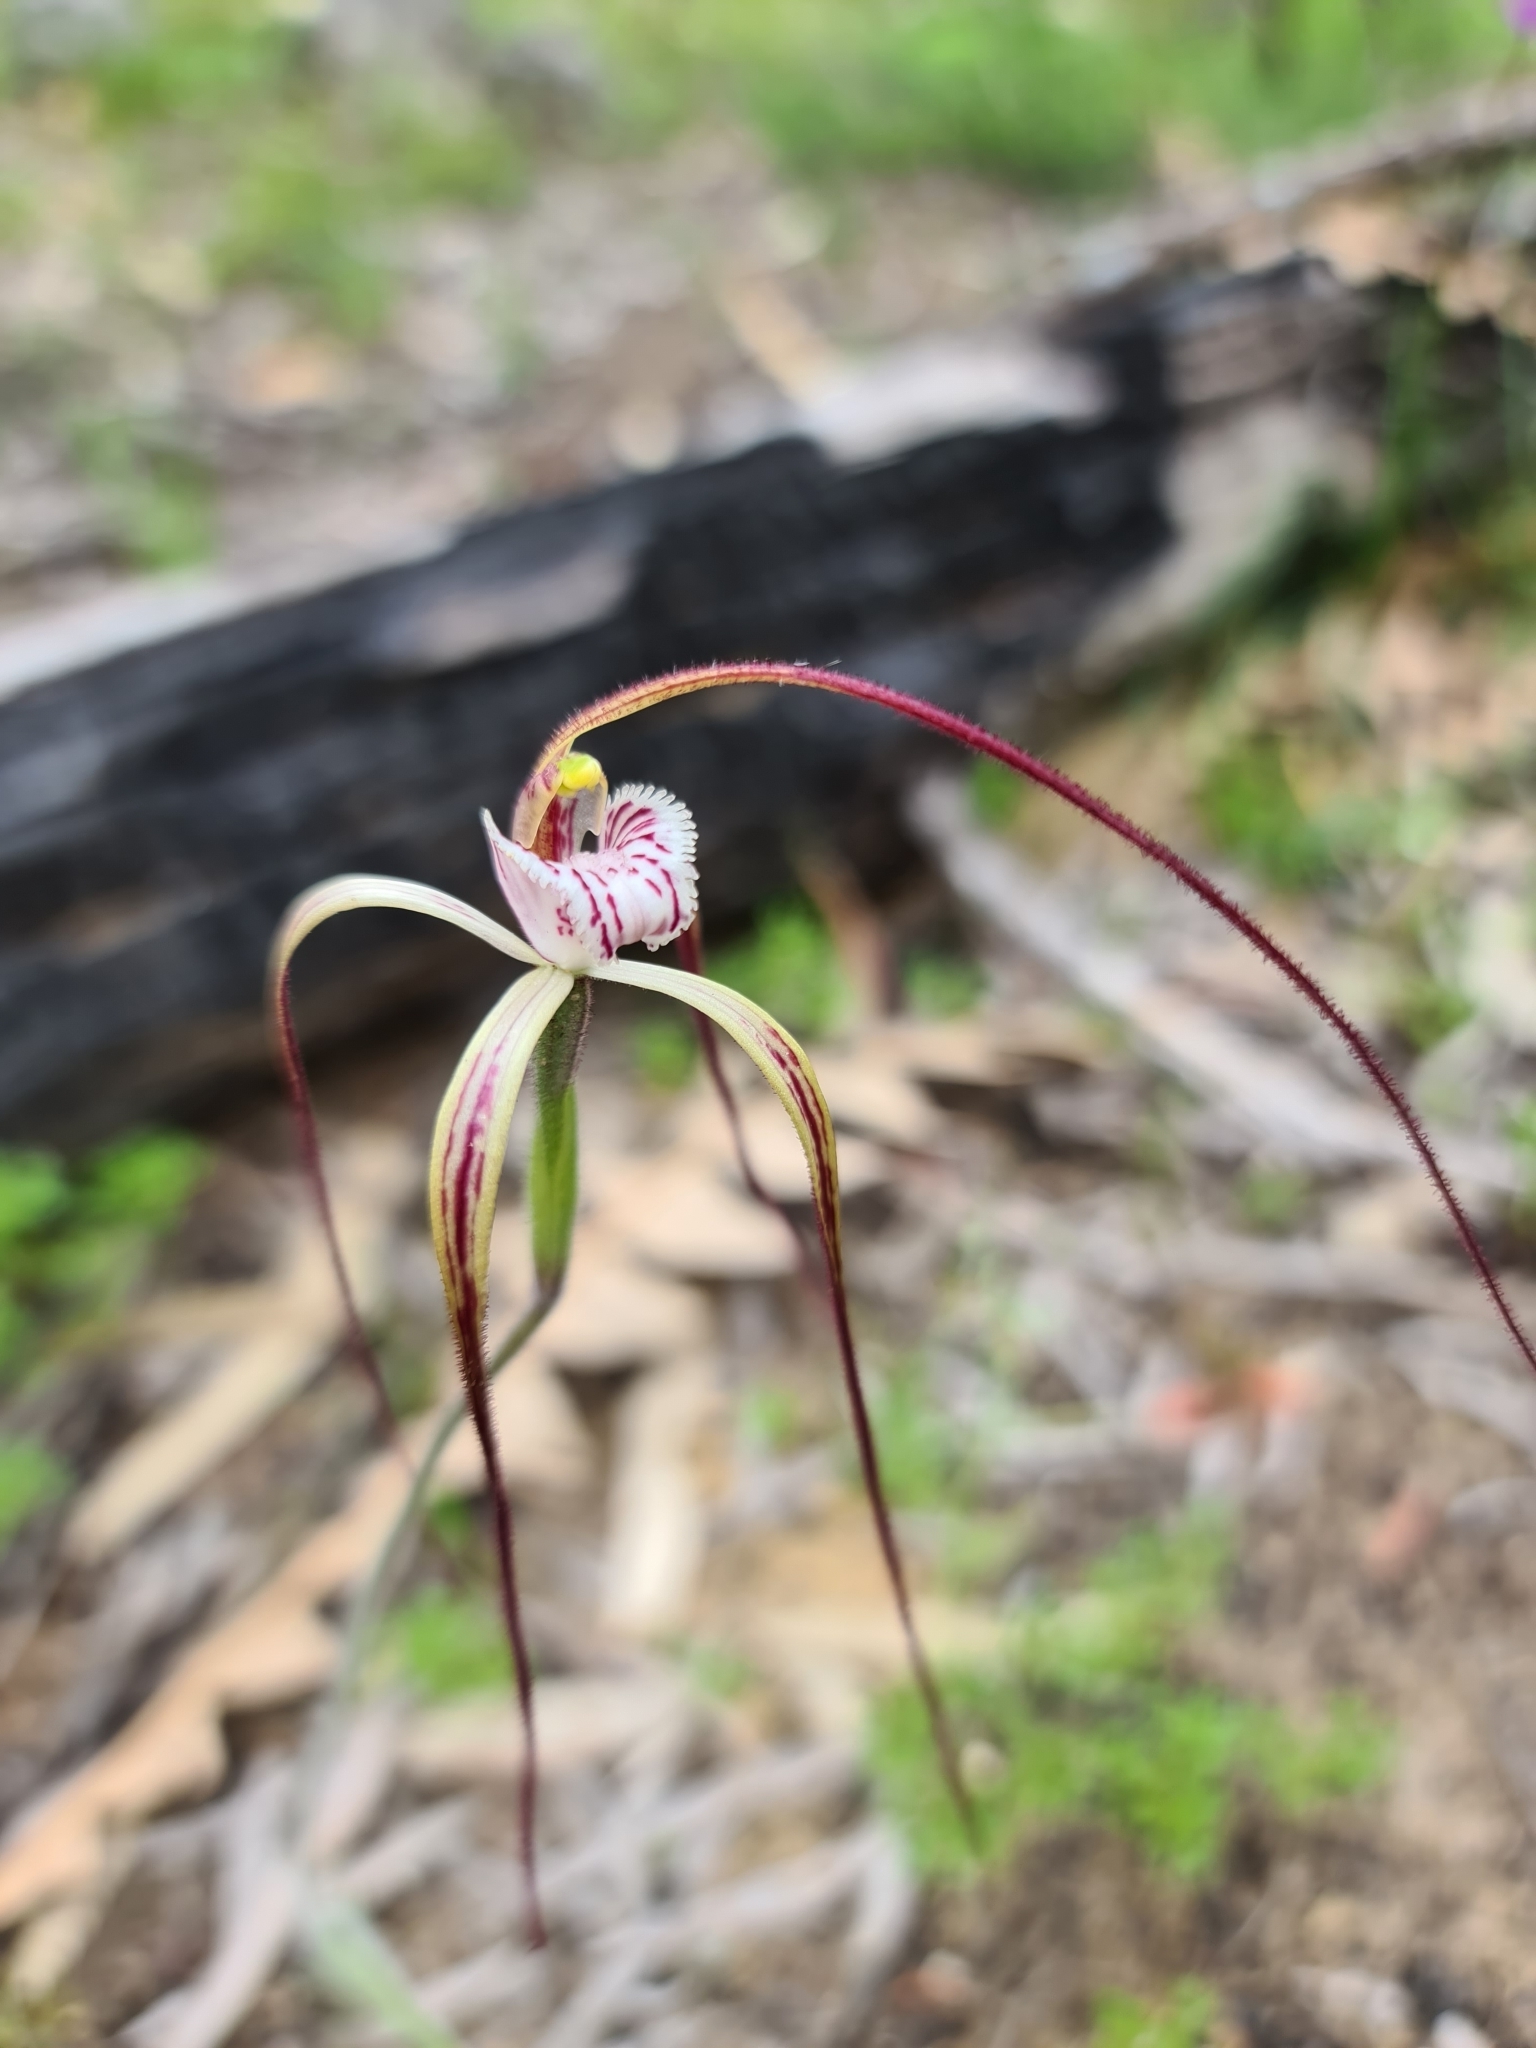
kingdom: Plantae
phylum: Tracheophyta
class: Liliopsida
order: Asparagales
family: Orchidaceae
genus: Caladenia
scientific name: Caladenia chapmanii
